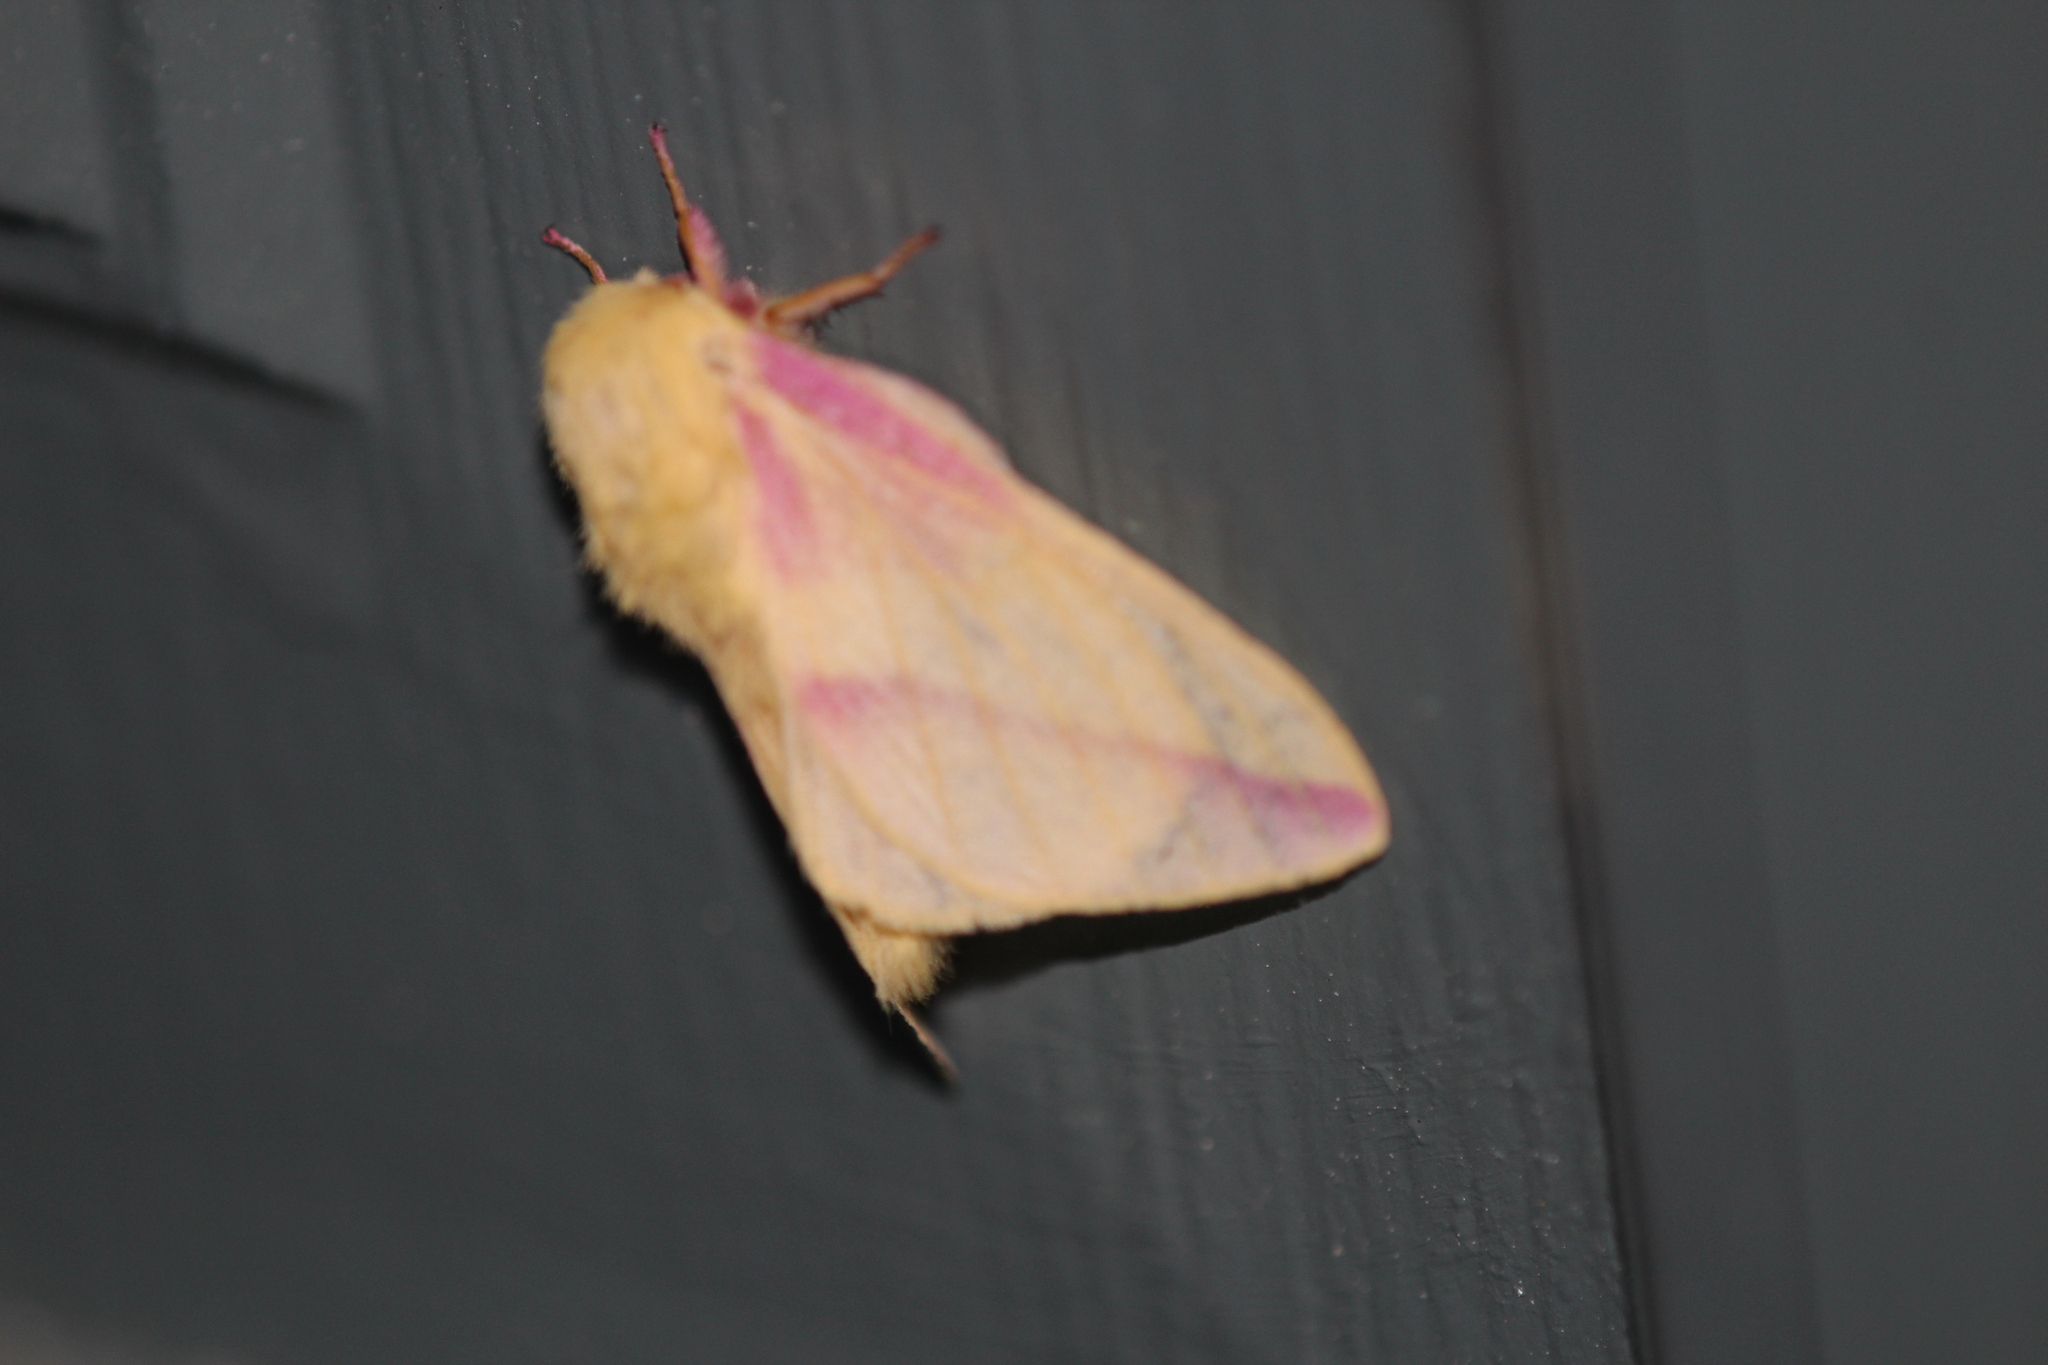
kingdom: Animalia
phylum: Arthropoda
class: Insecta
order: Lepidoptera
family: Saturniidae
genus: Dryocampa
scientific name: Dryocampa rubicunda
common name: Rosy maple moth
